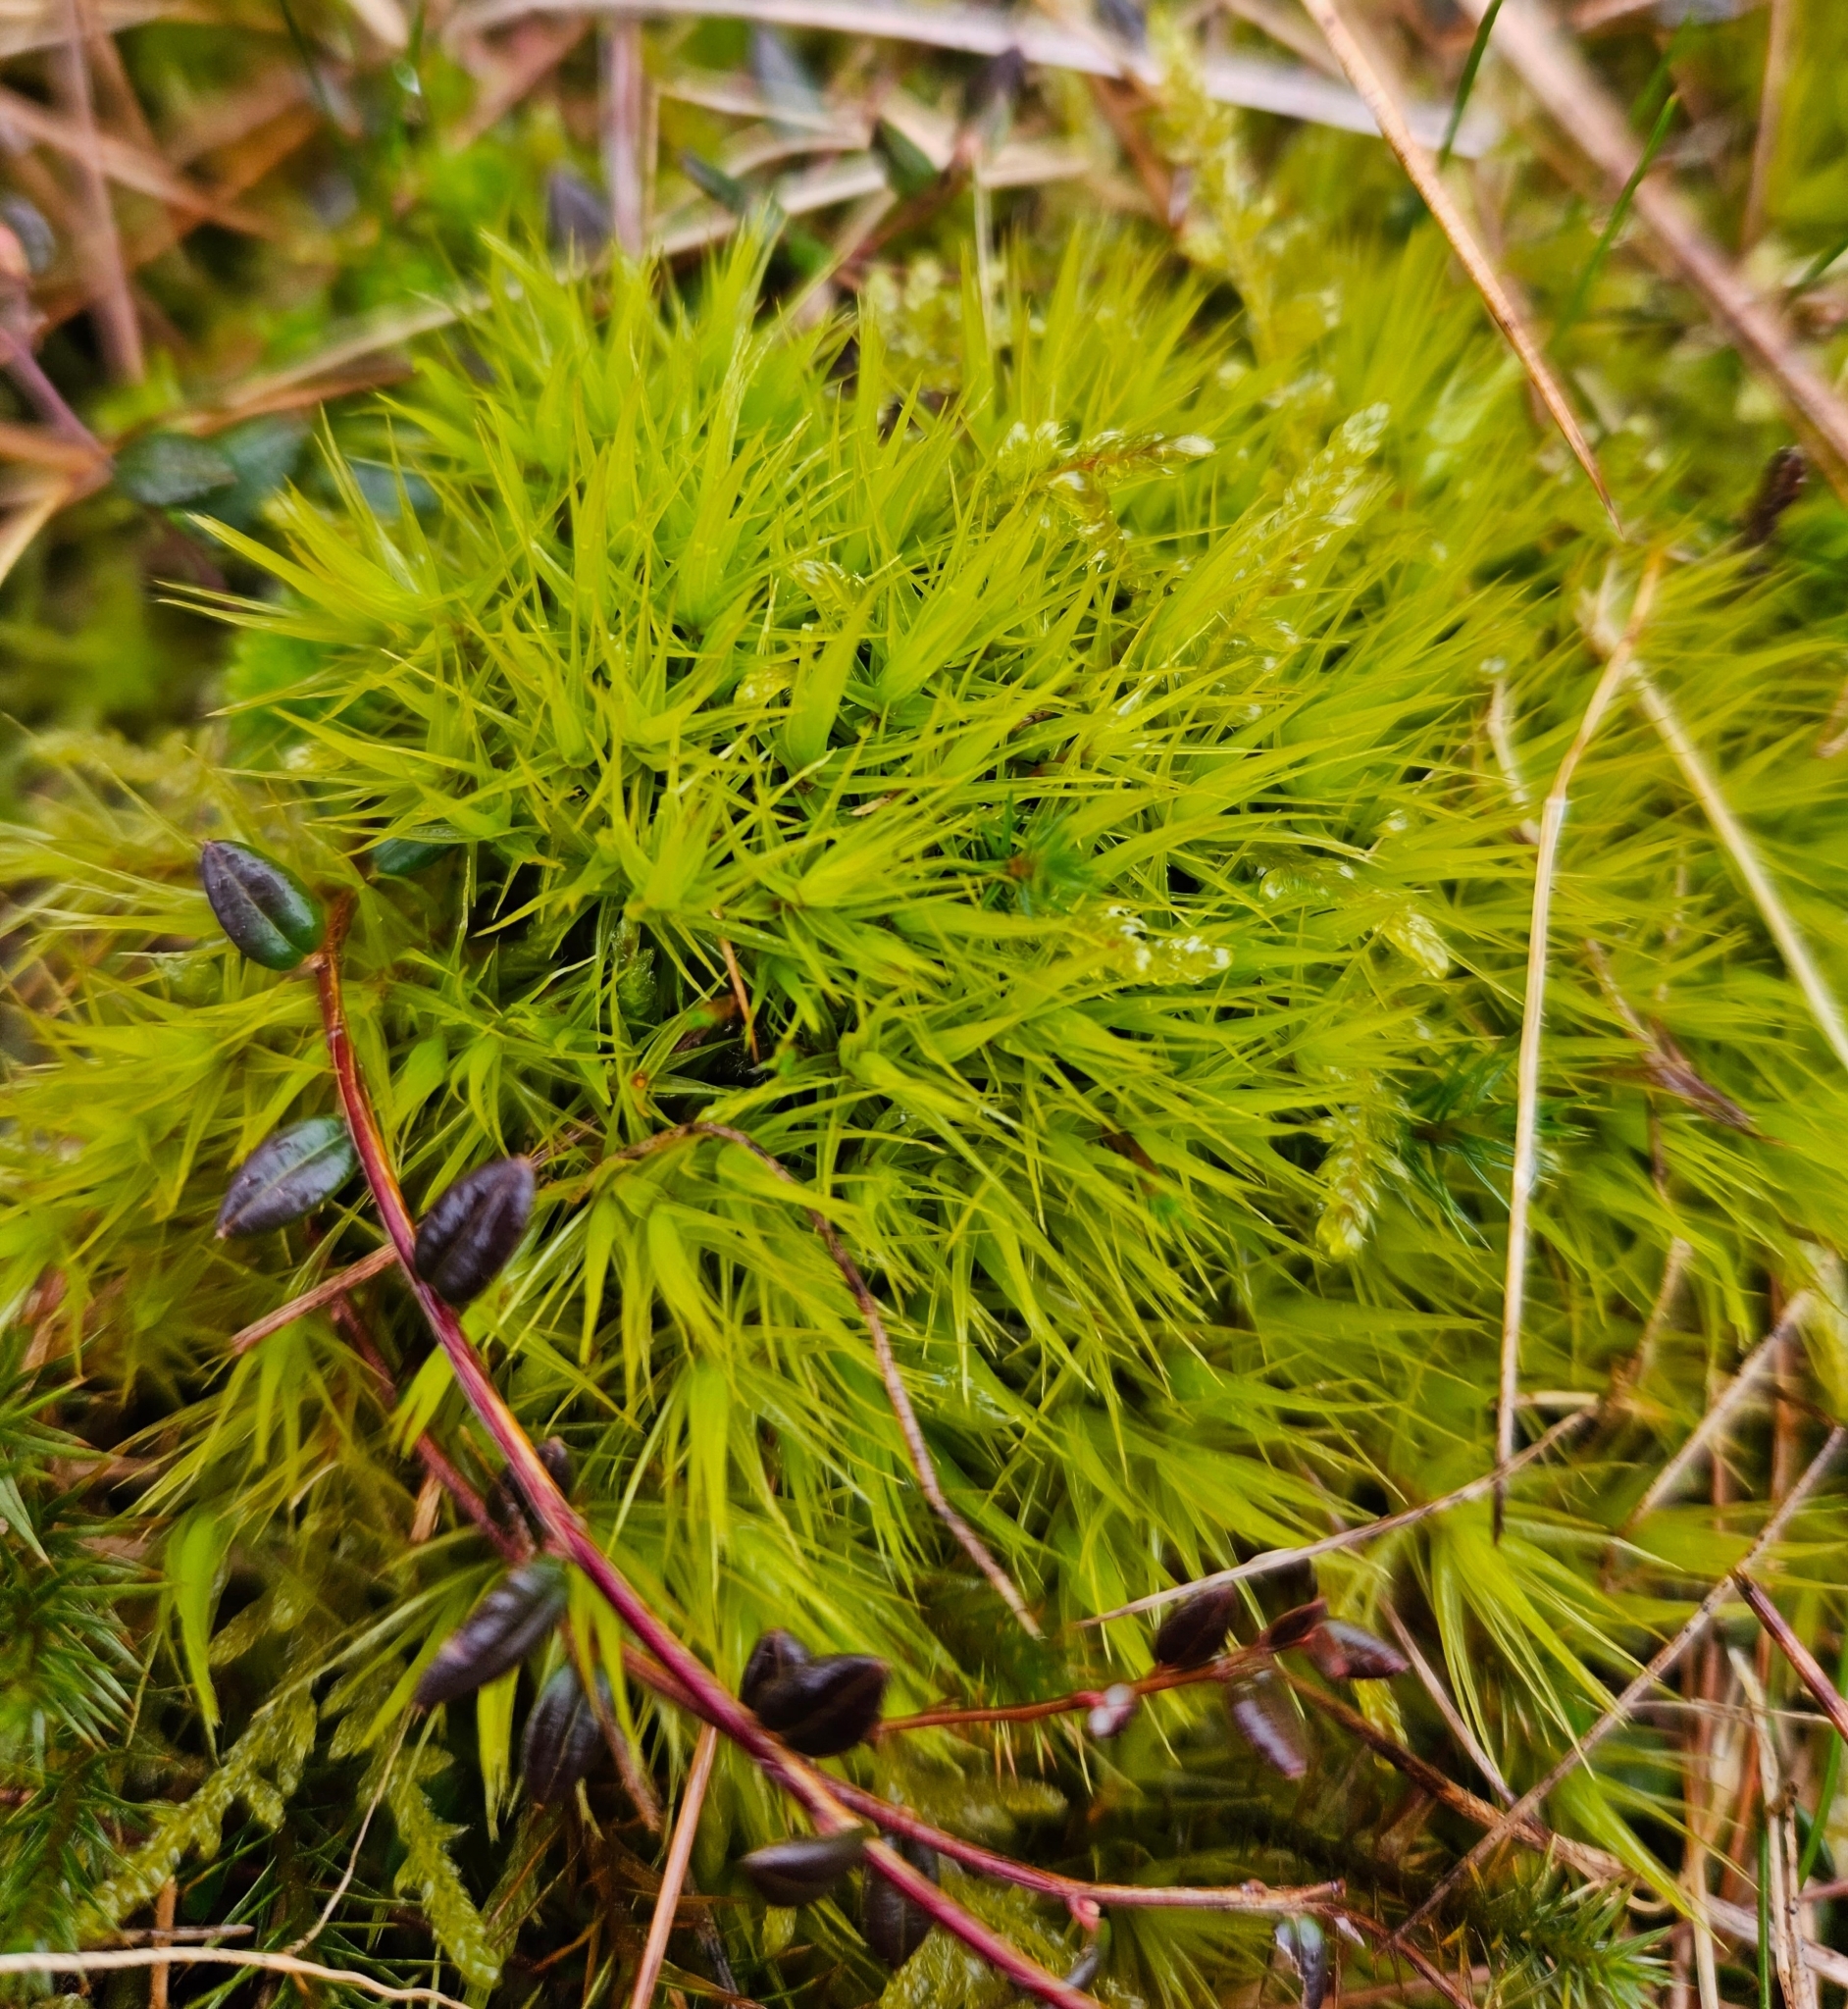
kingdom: Plantae
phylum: Bryophyta
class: Bryopsida
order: Dicranales
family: Dicranaceae
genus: Dicranum
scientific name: Dicranum scoparium
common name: Broom fork-moss
